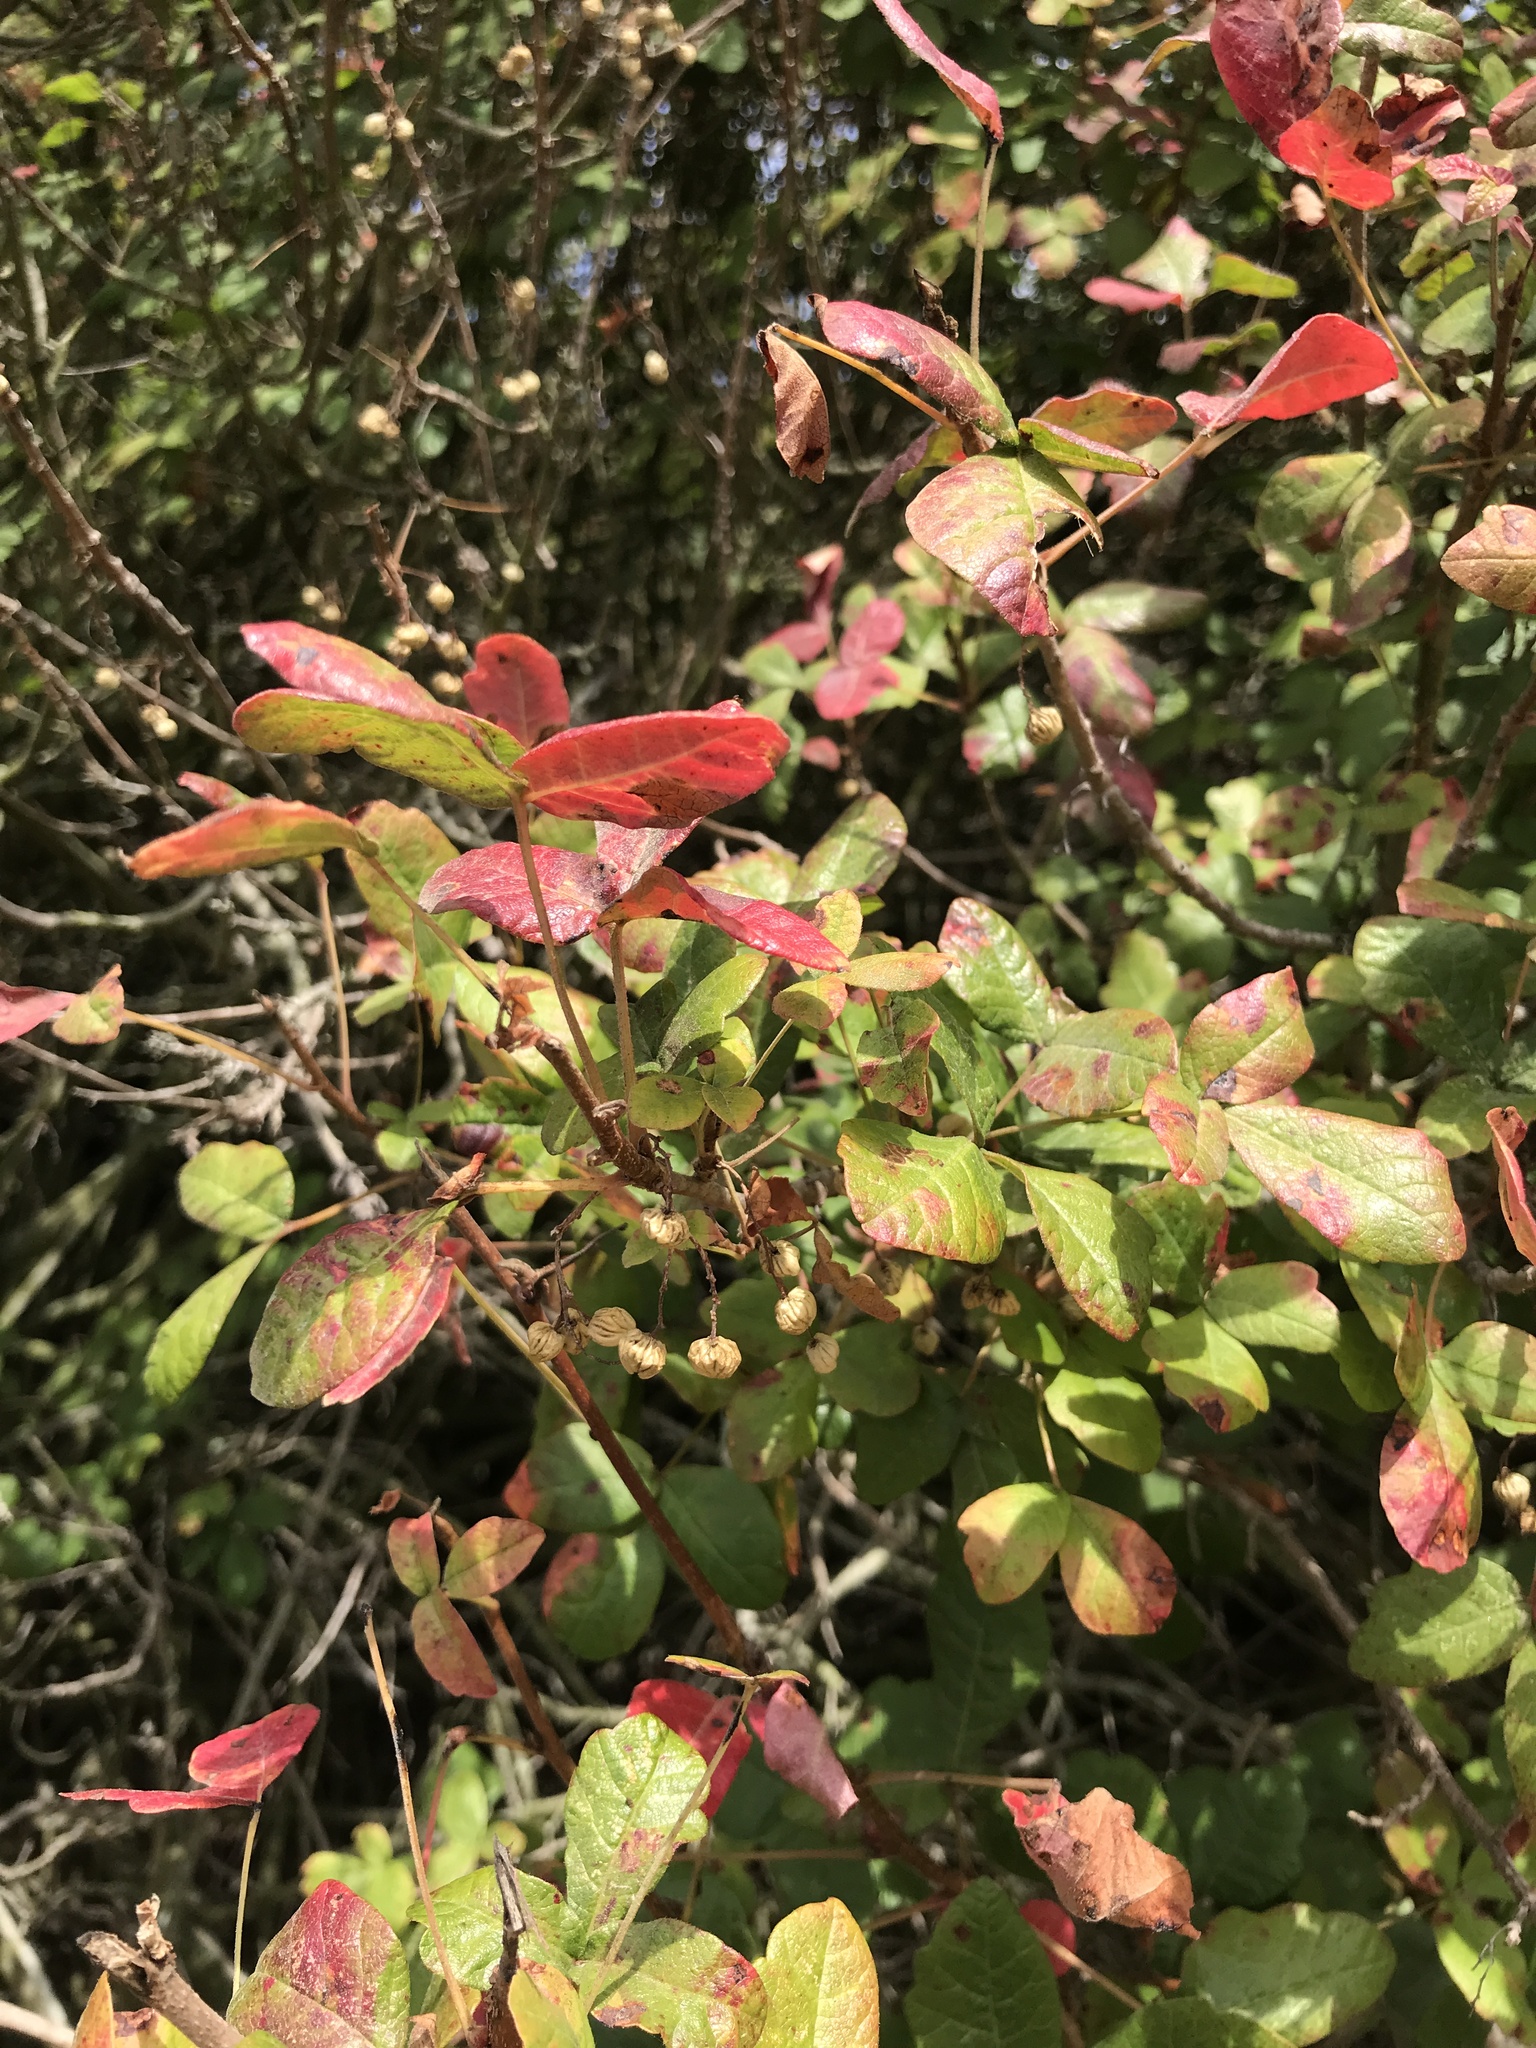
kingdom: Plantae
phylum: Tracheophyta
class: Magnoliopsida
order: Sapindales
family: Anacardiaceae
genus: Toxicodendron
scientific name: Toxicodendron diversilobum
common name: Pacific poison-oak
